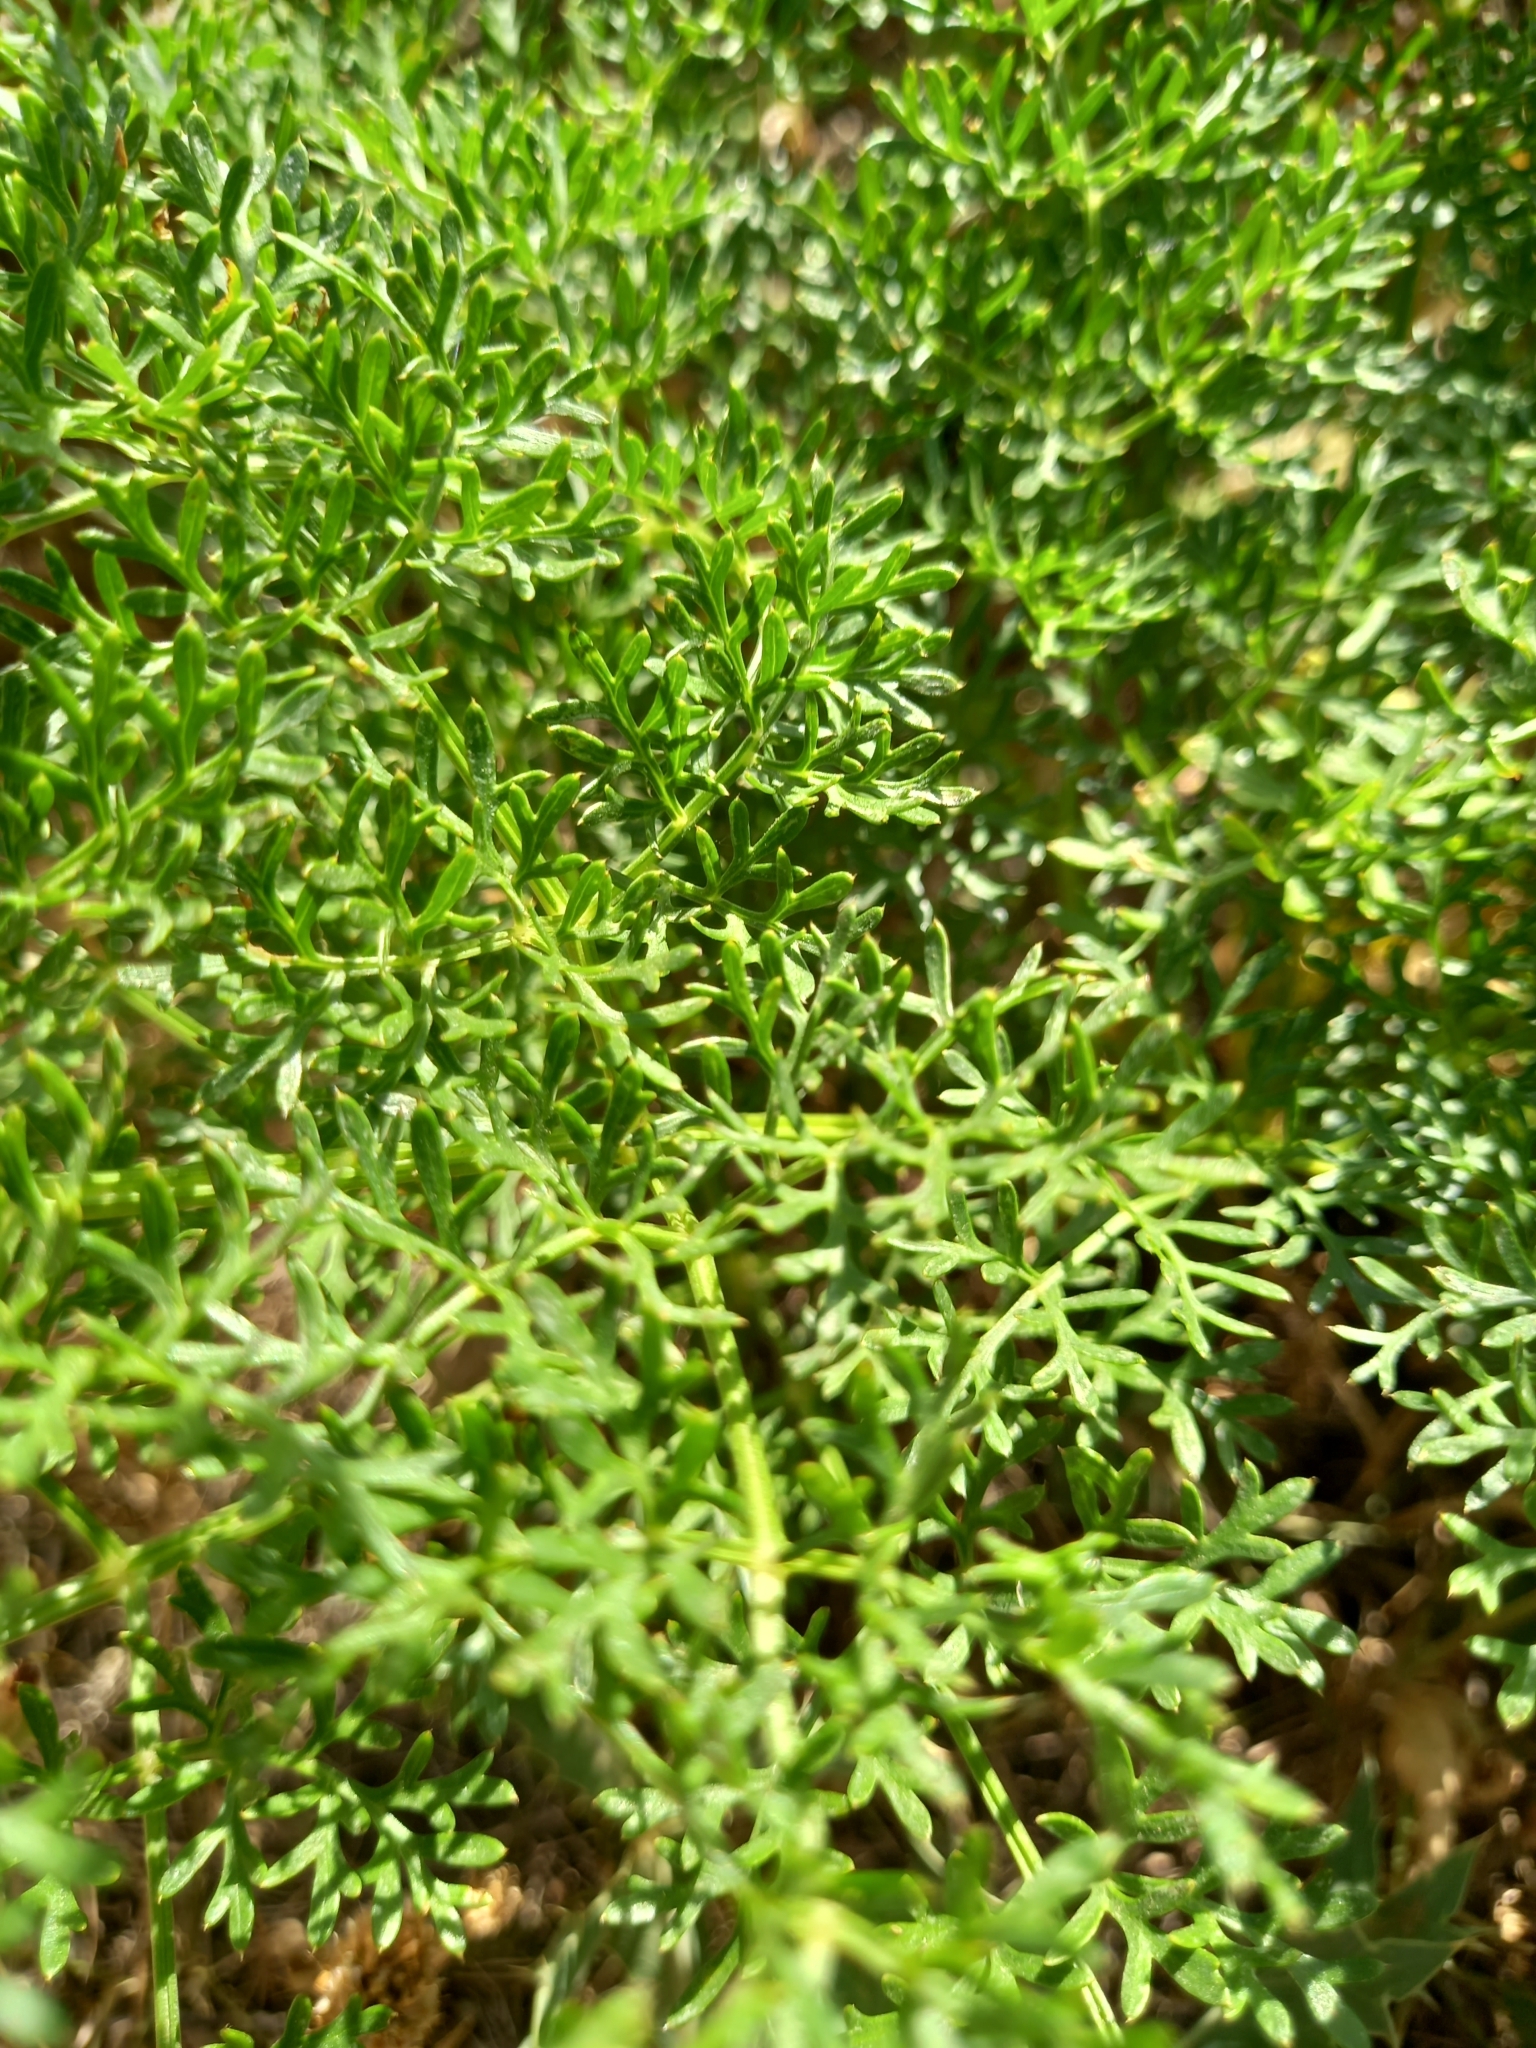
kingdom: Plantae
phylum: Tracheophyta
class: Magnoliopsida
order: Apiales
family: Apiaceae
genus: Seseli
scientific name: Seseli libanotis
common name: Mooncarrot
